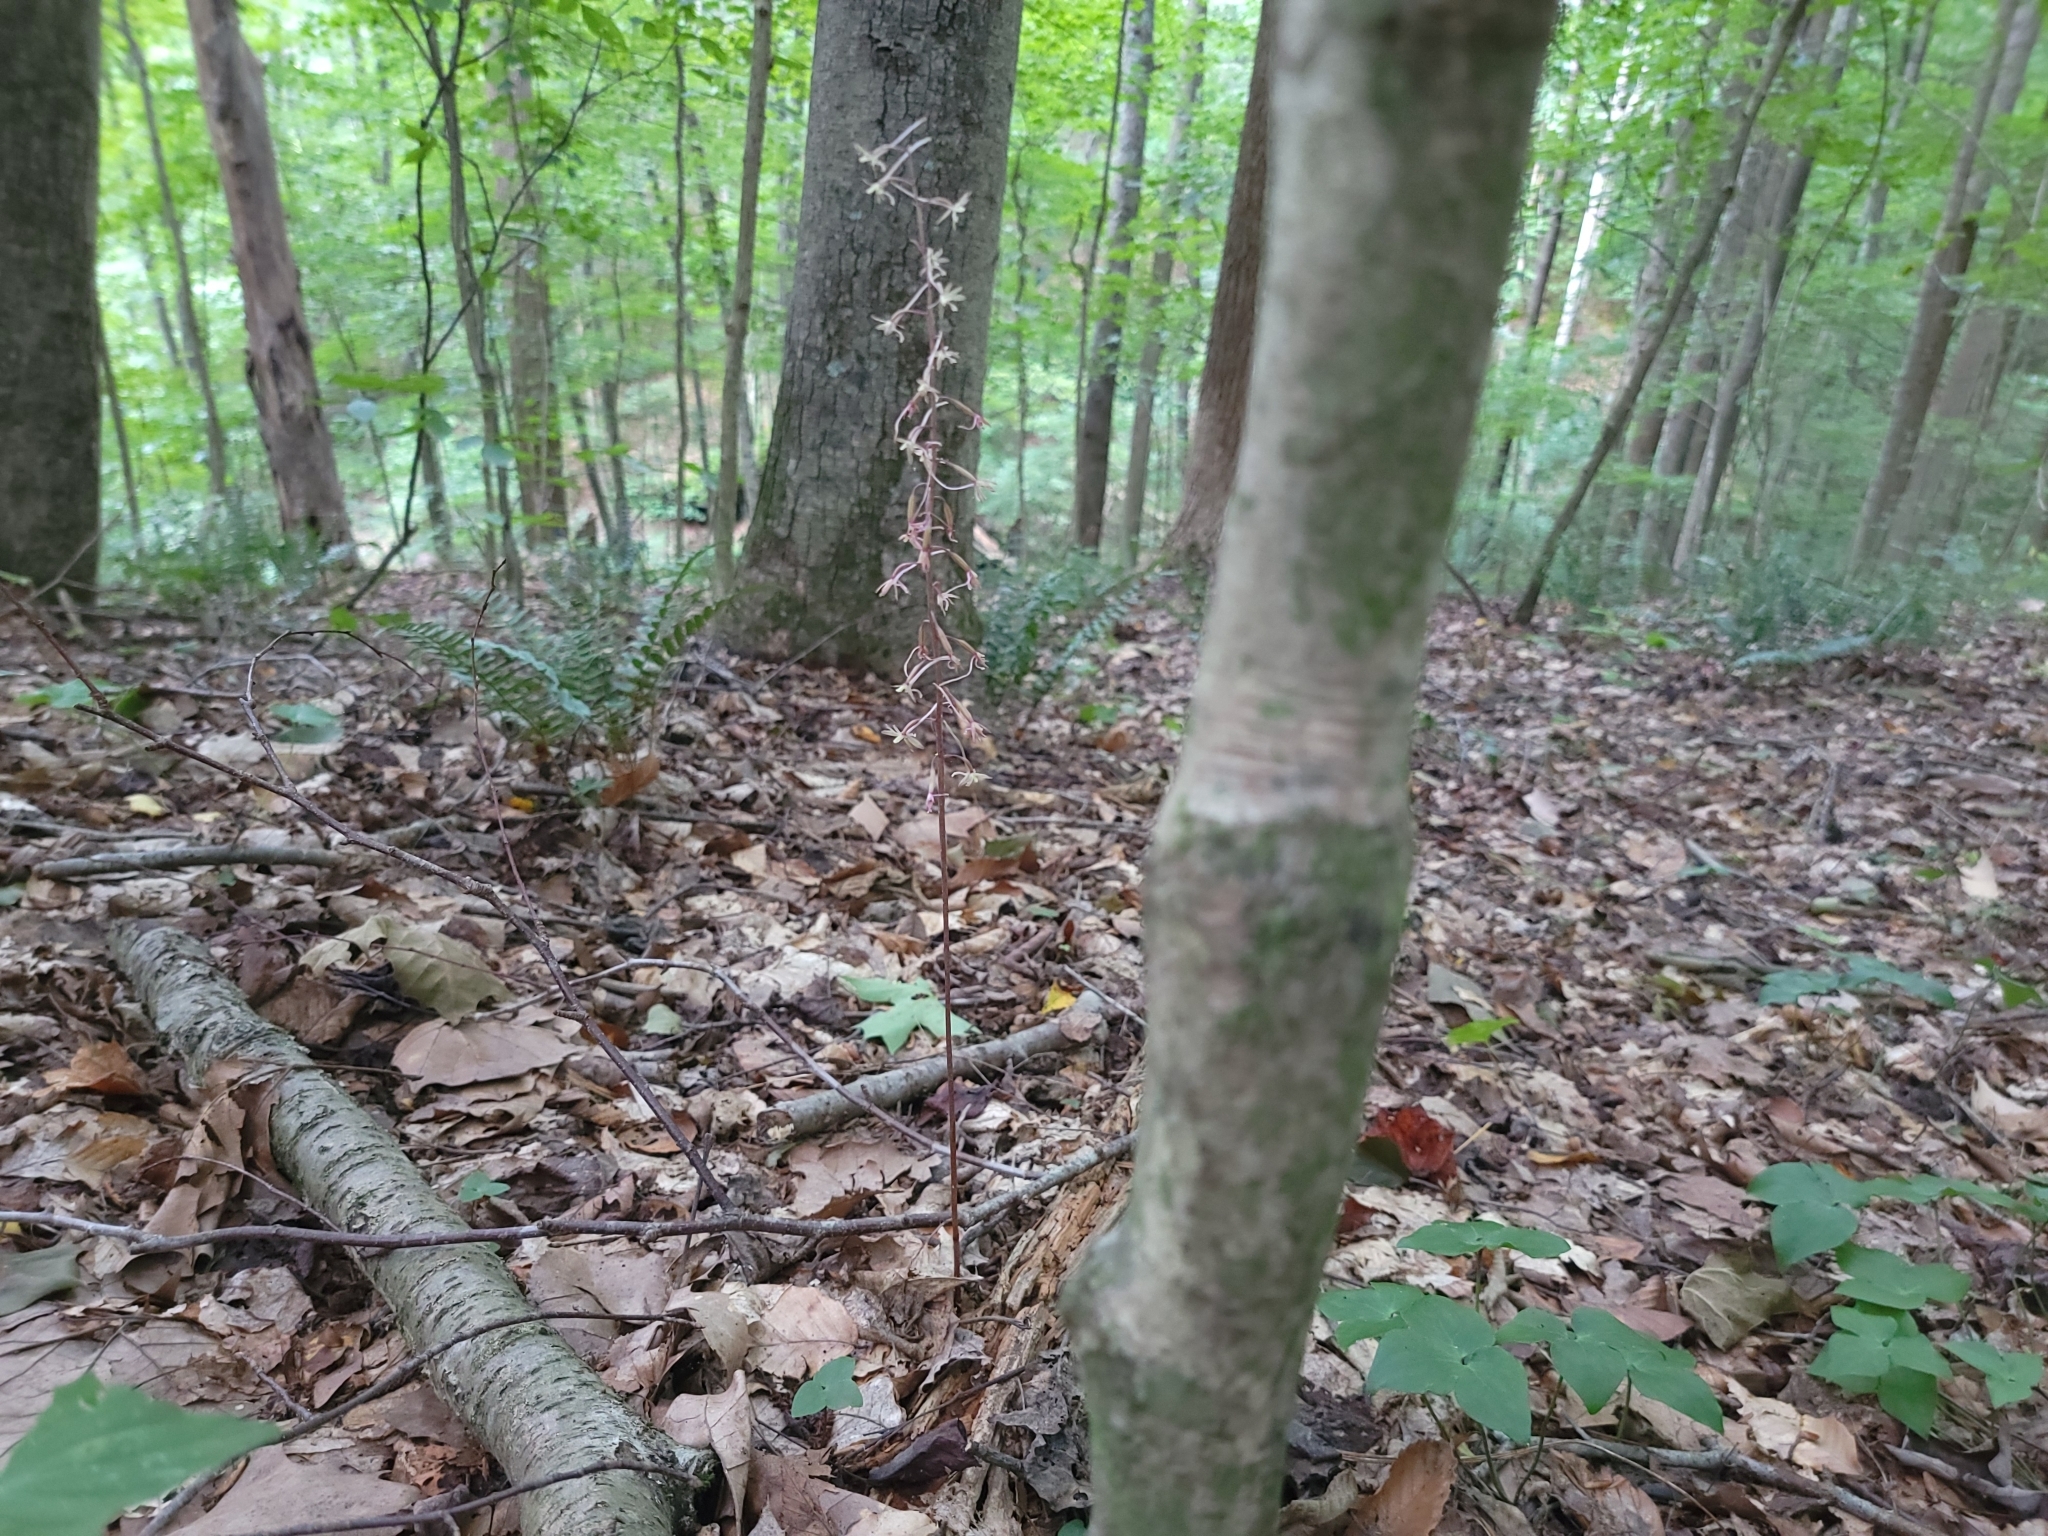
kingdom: Plantae
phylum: Tracheophyta
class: Liliopsida
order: Asparagales
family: Orchidaceae
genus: Tipularia
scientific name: Tipularia discolor
